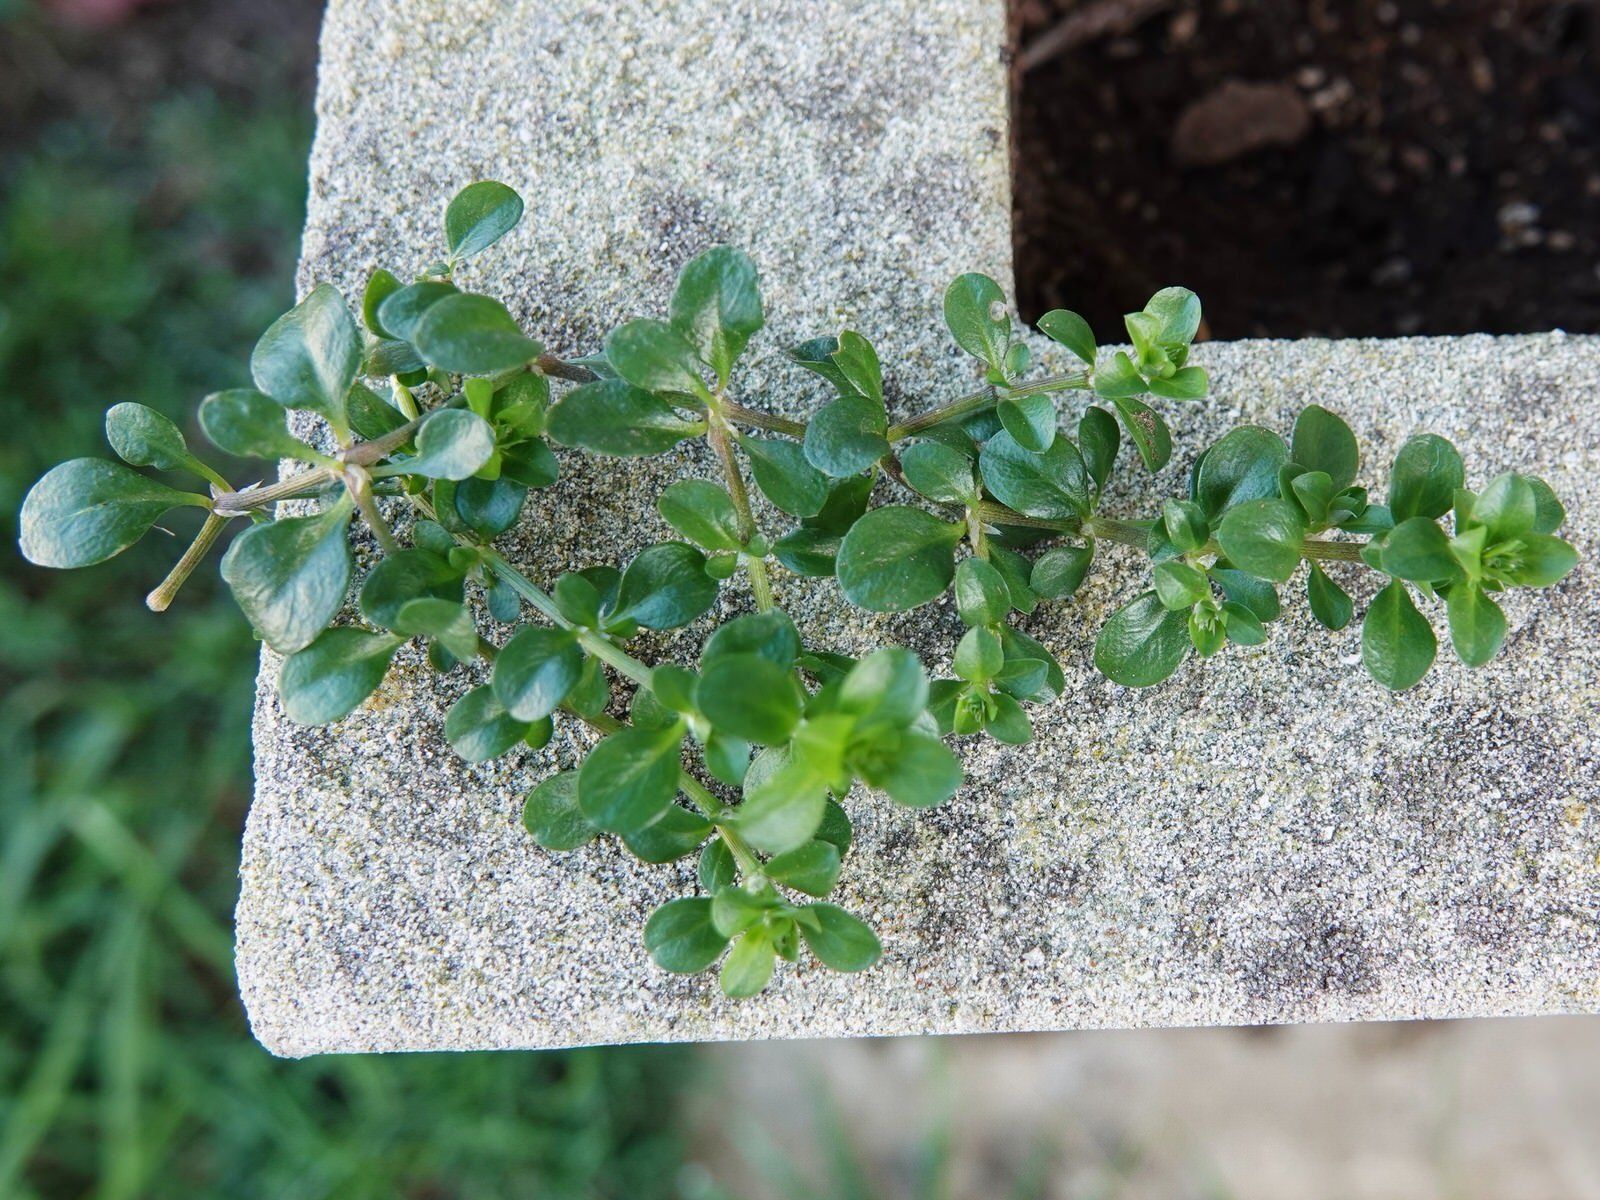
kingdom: Plantae
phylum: Tracheophyta
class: Magnoliopsida
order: Caryophyllales
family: Caryophyllaceae
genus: Polycarpon
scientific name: Polycarpon tetraphyllum
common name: Four-leaved all-seed
